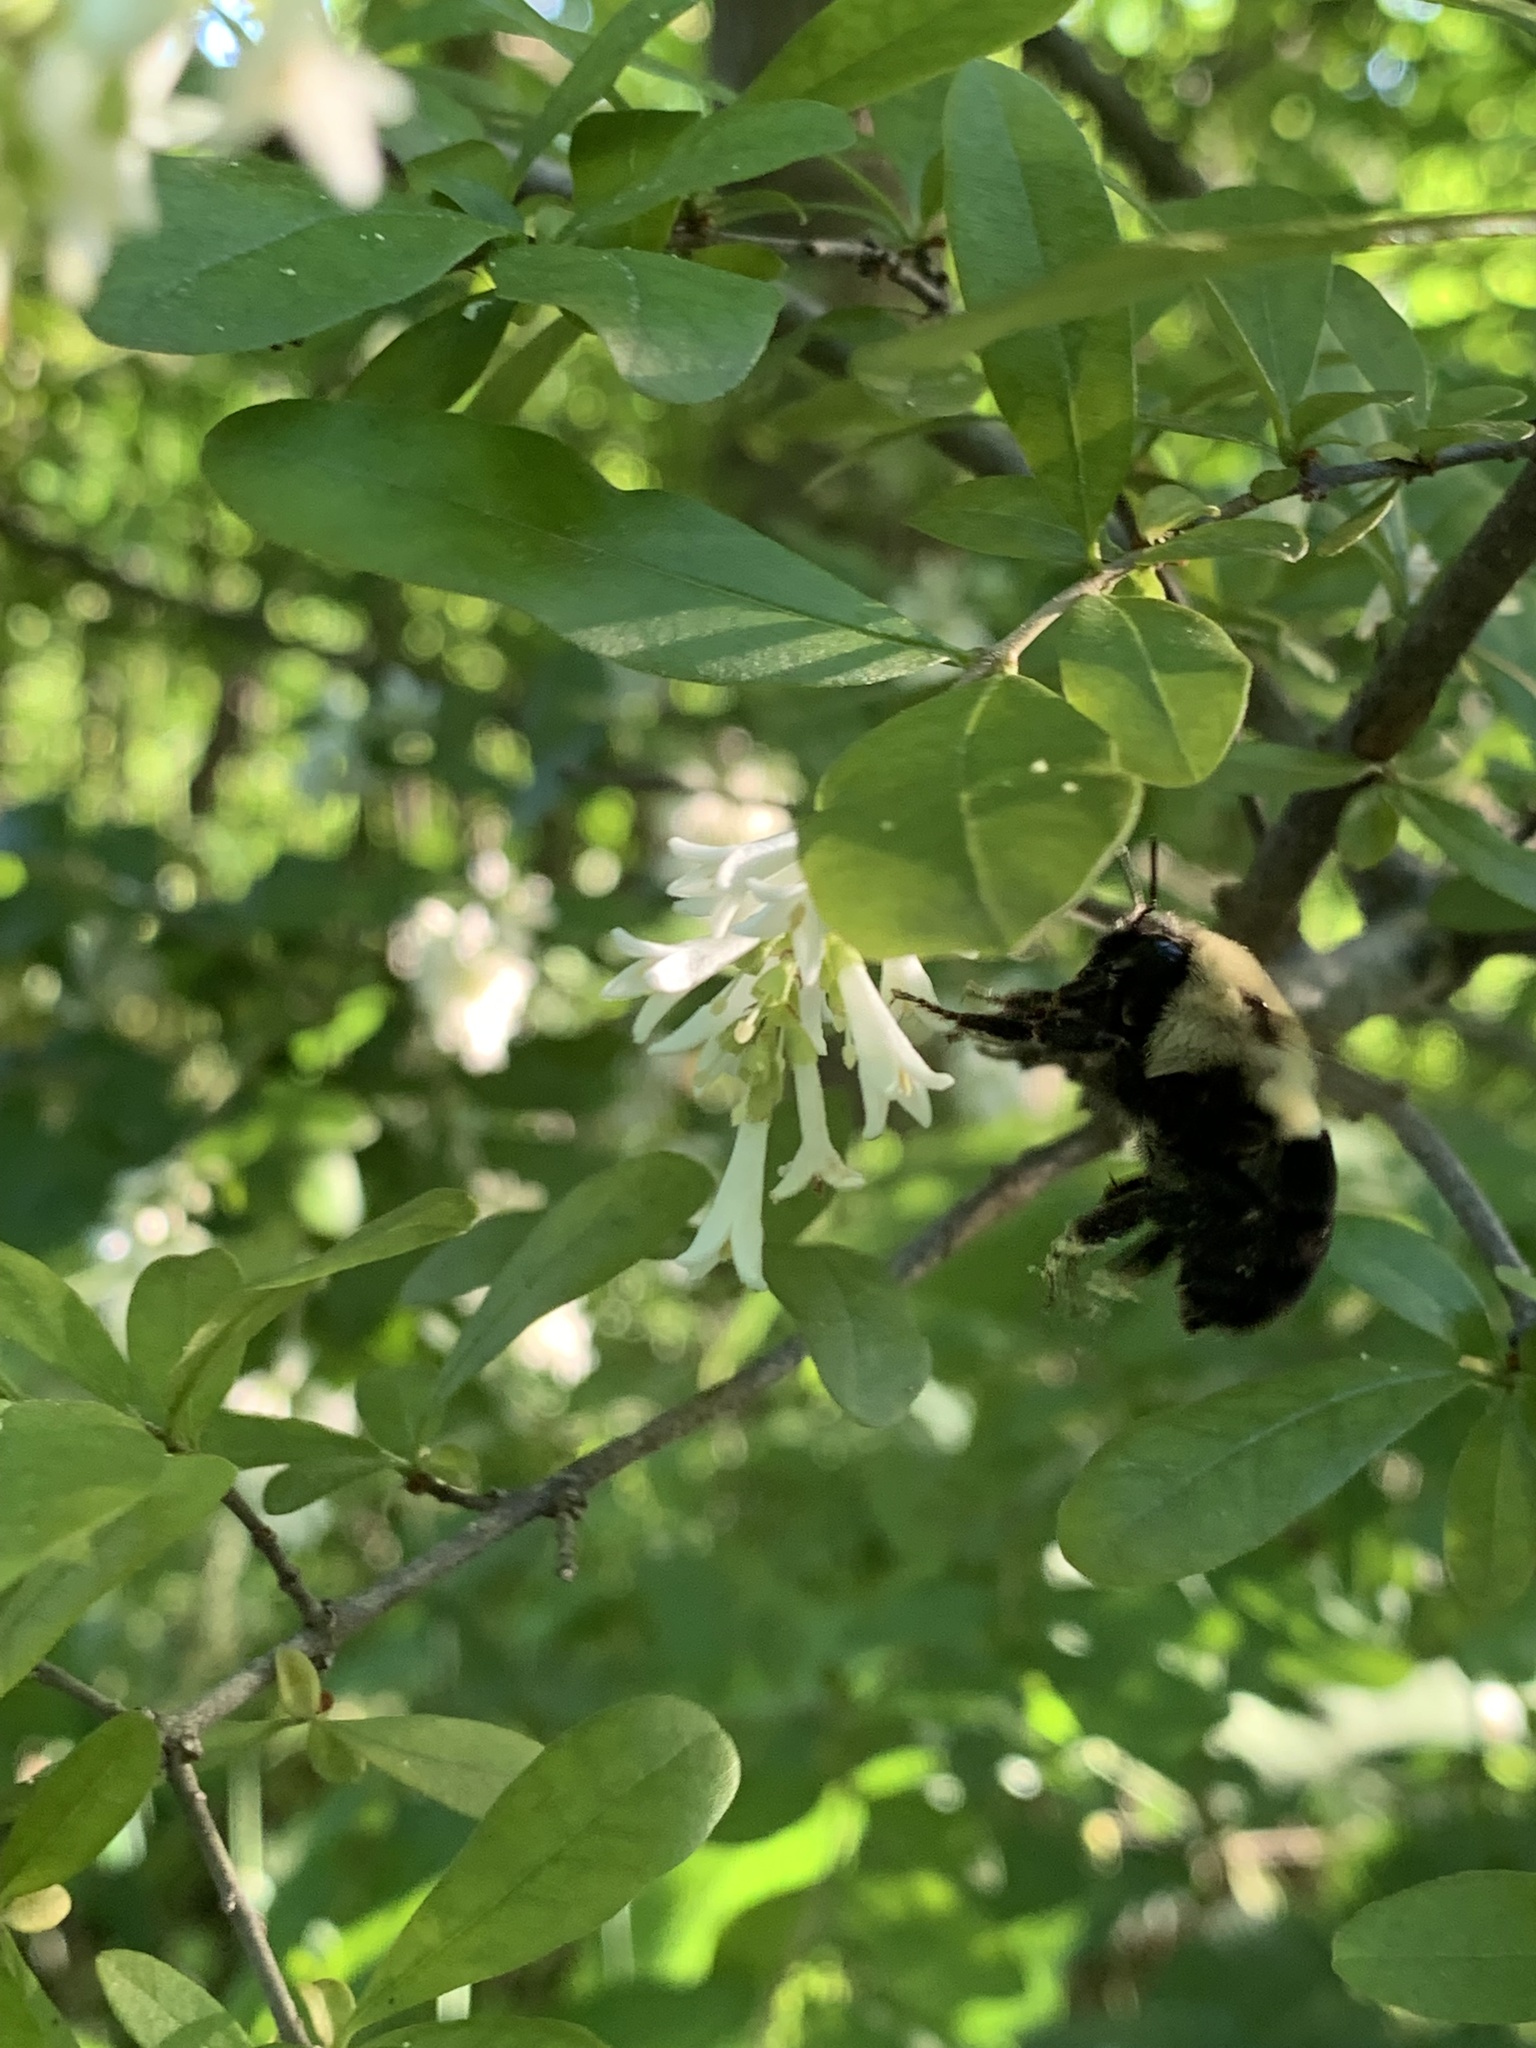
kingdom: Animalia
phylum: Arthropoda
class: Insecta
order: Hymenoptera
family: Apidae
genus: Bombus
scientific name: Bombus impatiens
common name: Common eastern bumble bee
